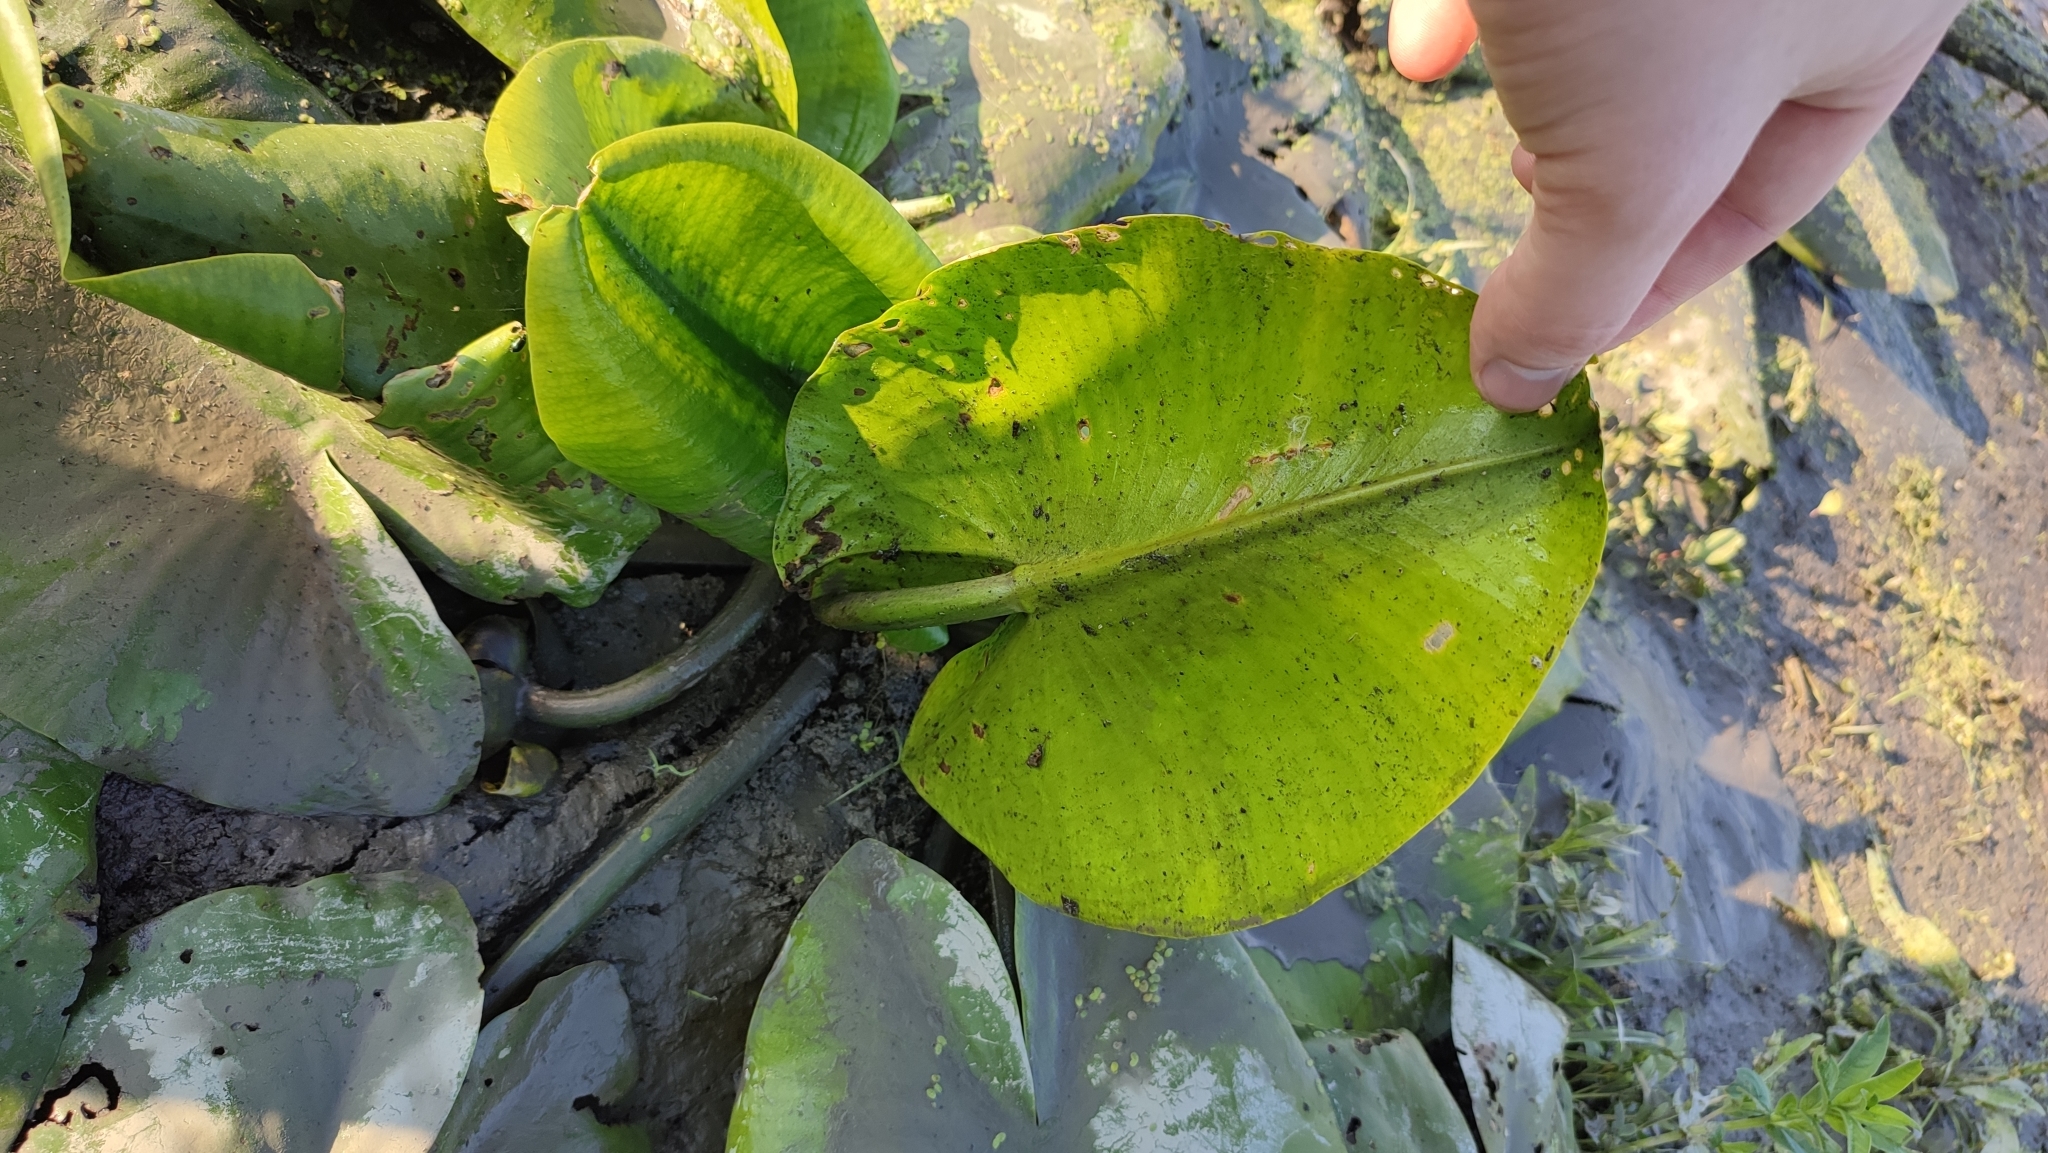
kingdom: Plantae
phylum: Tracheophyta
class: Magnoliopsida
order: Nymphaeales
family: Nymphaeaceae
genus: Nuphar
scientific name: Nuphar lutea
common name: Yellow water-lily
